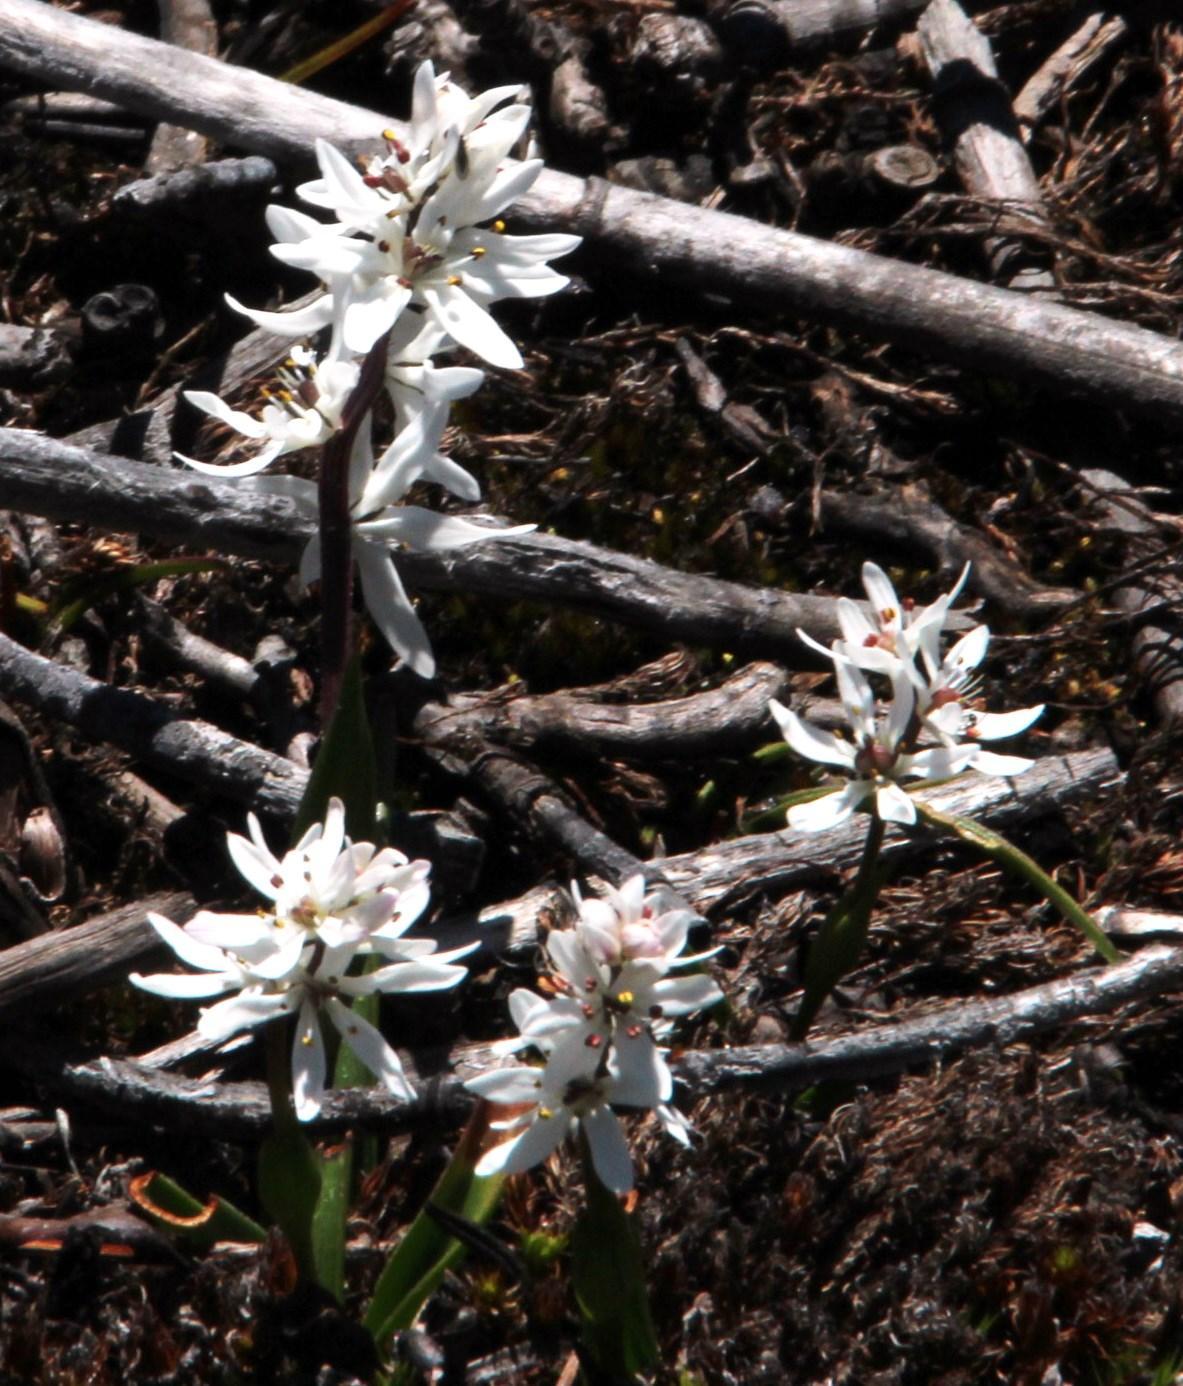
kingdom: Plantae
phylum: Tracheophyta
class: Liliopsida
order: Liliales
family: Colchicaceae
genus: Wurmbea
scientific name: Wurmbea punctata
